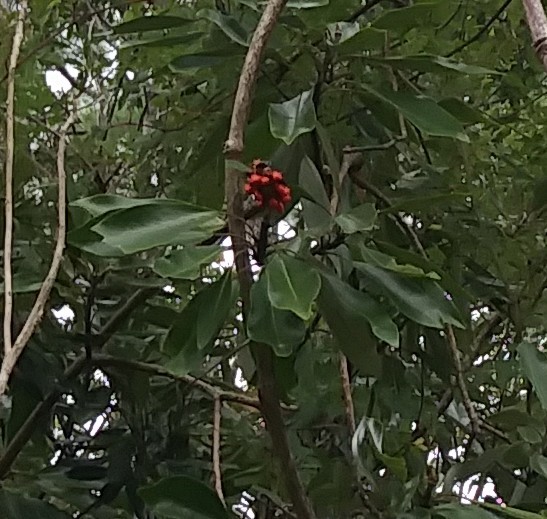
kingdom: Plantae
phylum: Tracheophyta
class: Magnoliopsida
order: Magnoliales
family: Magnoliaceae
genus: Magnolia
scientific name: Magnolia virginiana
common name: Swamp bay
